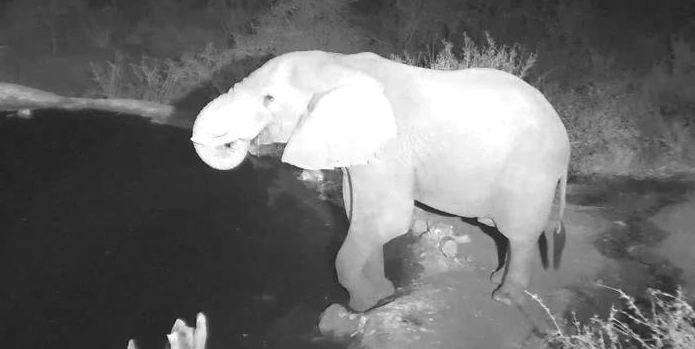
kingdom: Animalia
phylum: Chordata
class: Mammalia
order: Proboscidea
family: Elephantidae
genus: Loxodonta
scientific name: Loxodonta africana
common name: African elephant
